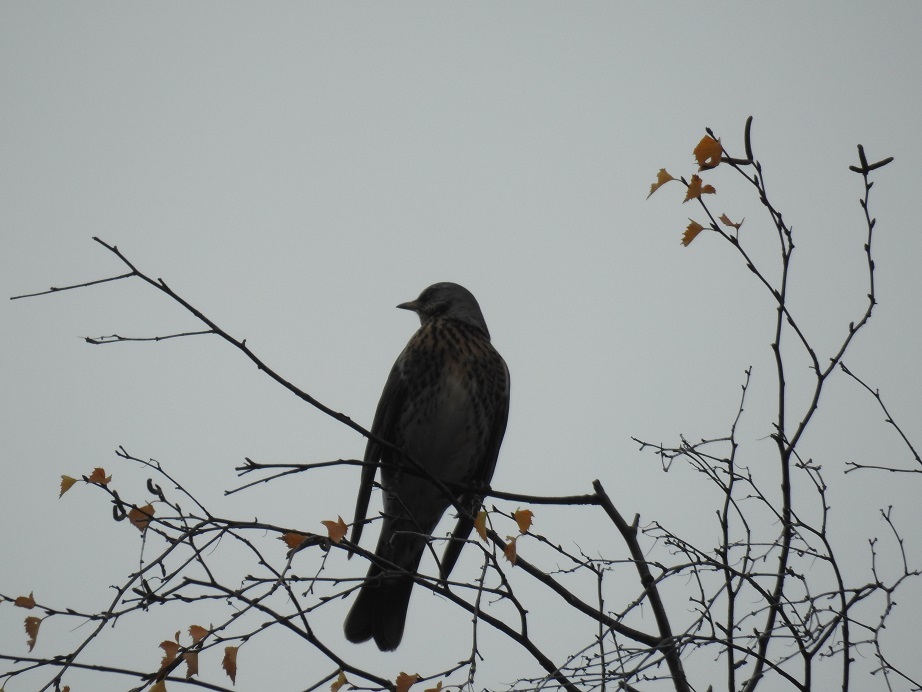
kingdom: Animalia
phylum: Chordata
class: Aves
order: Passeriformes
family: Turdidae
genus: Turdus
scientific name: Turdus pilaris
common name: Fieldfare
